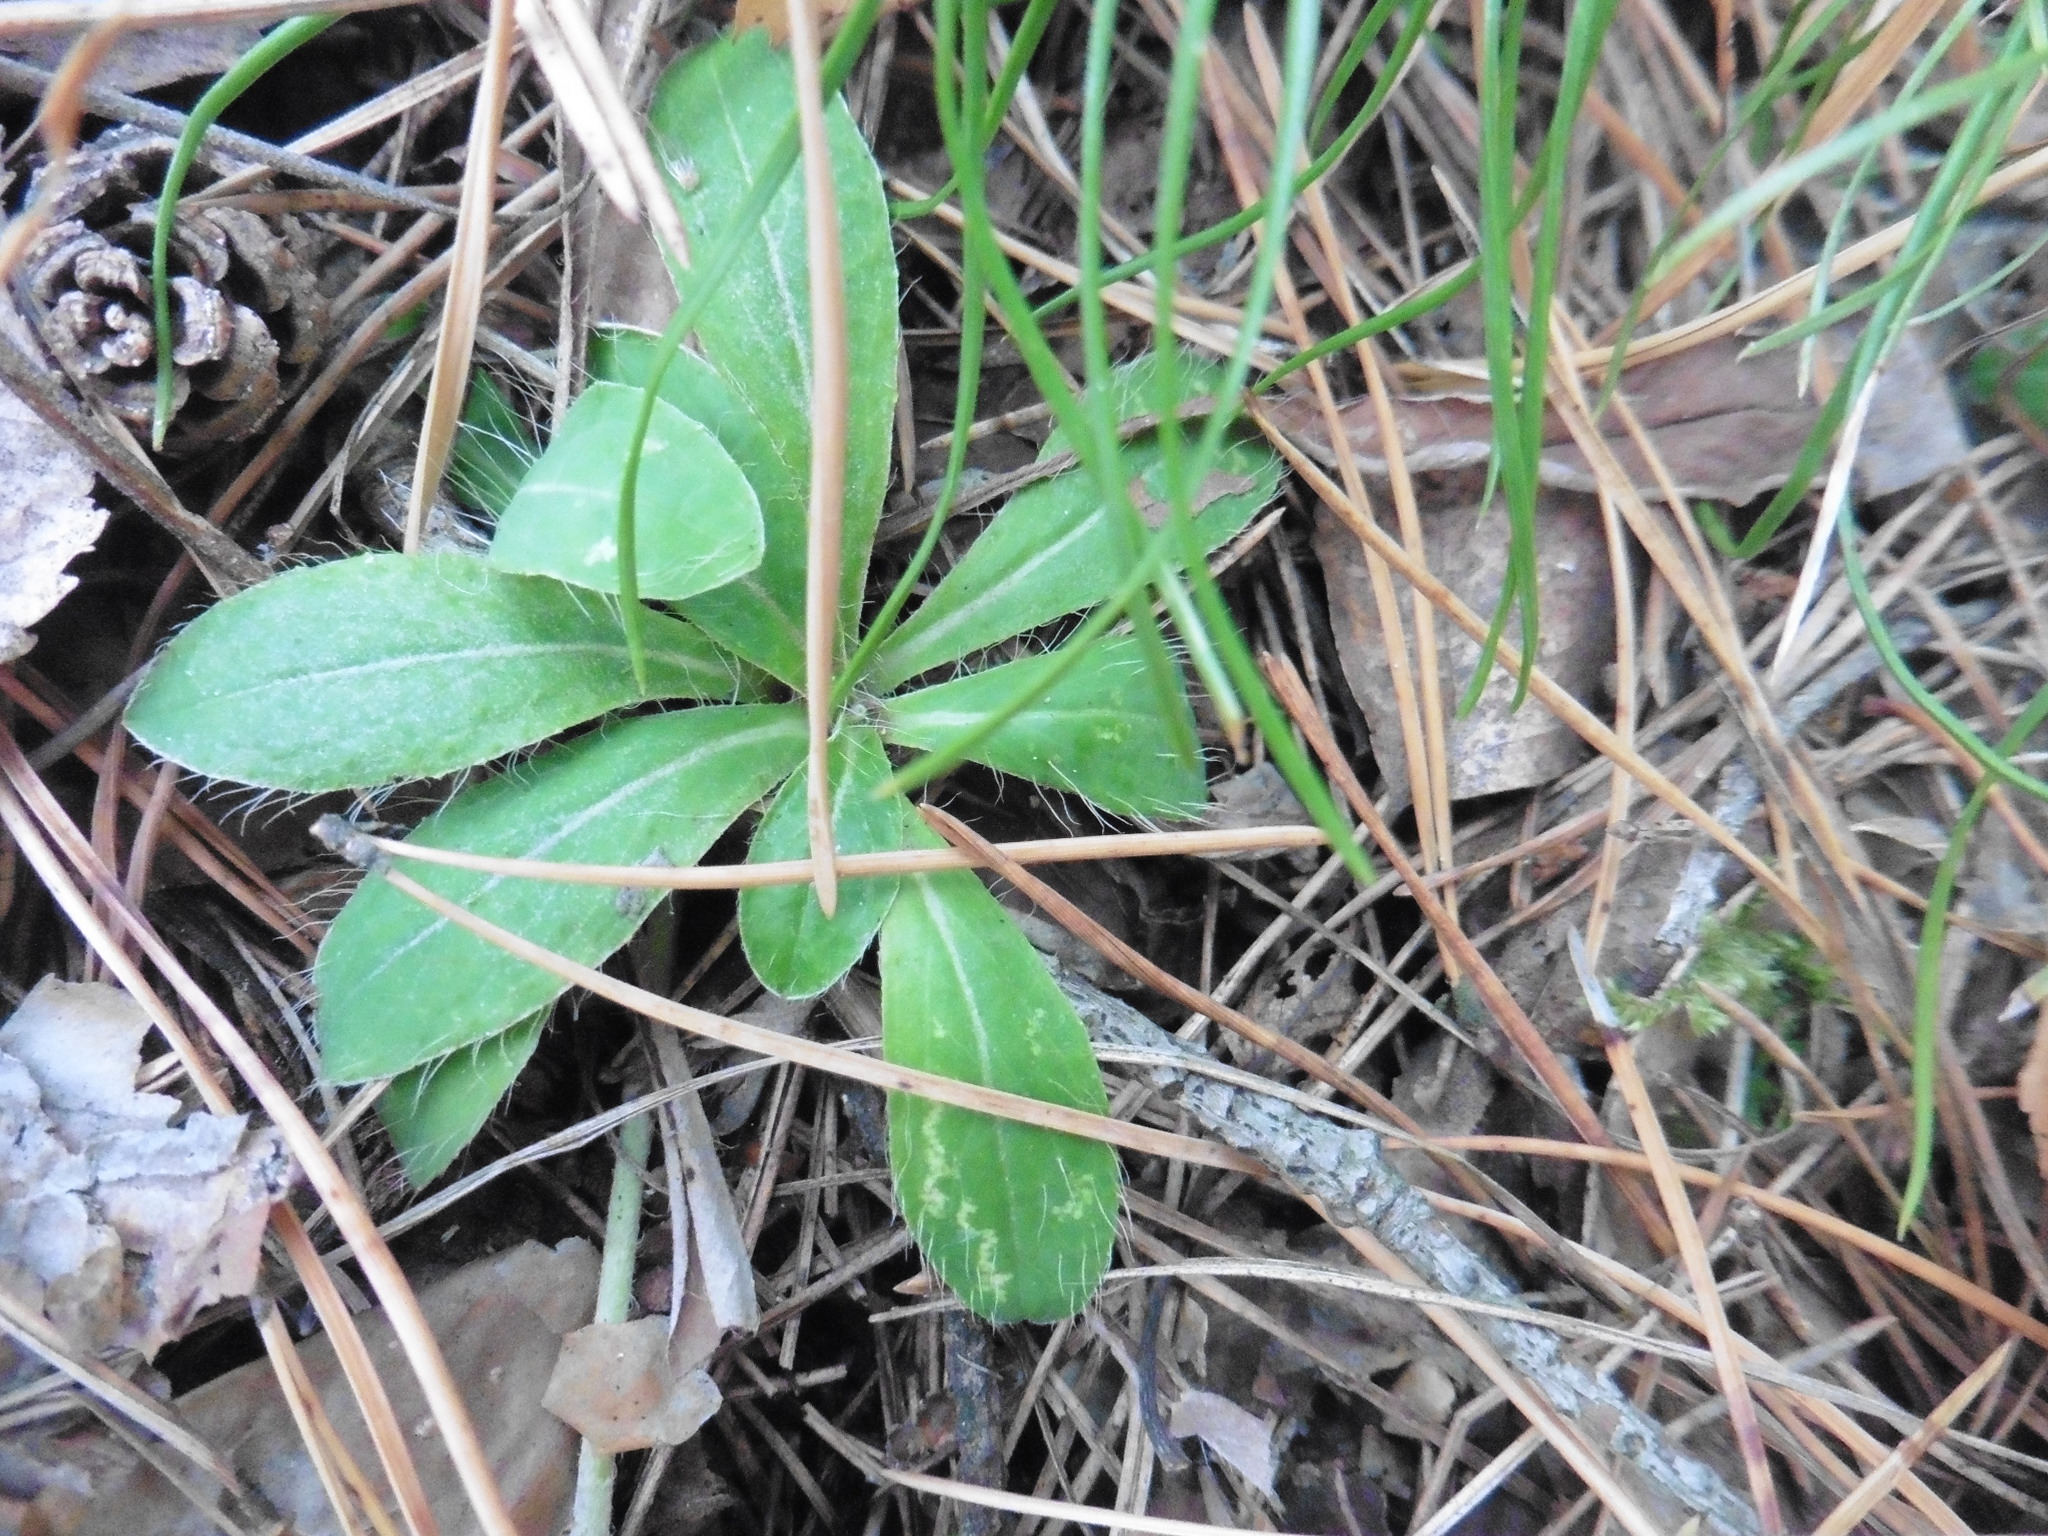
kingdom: Plantae
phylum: Tracheophyta
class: Magnoliopsida
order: Asterales
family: Asteraceae
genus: Pilosella
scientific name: Pilosella officinarum
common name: Mouse-ear hawkweed
